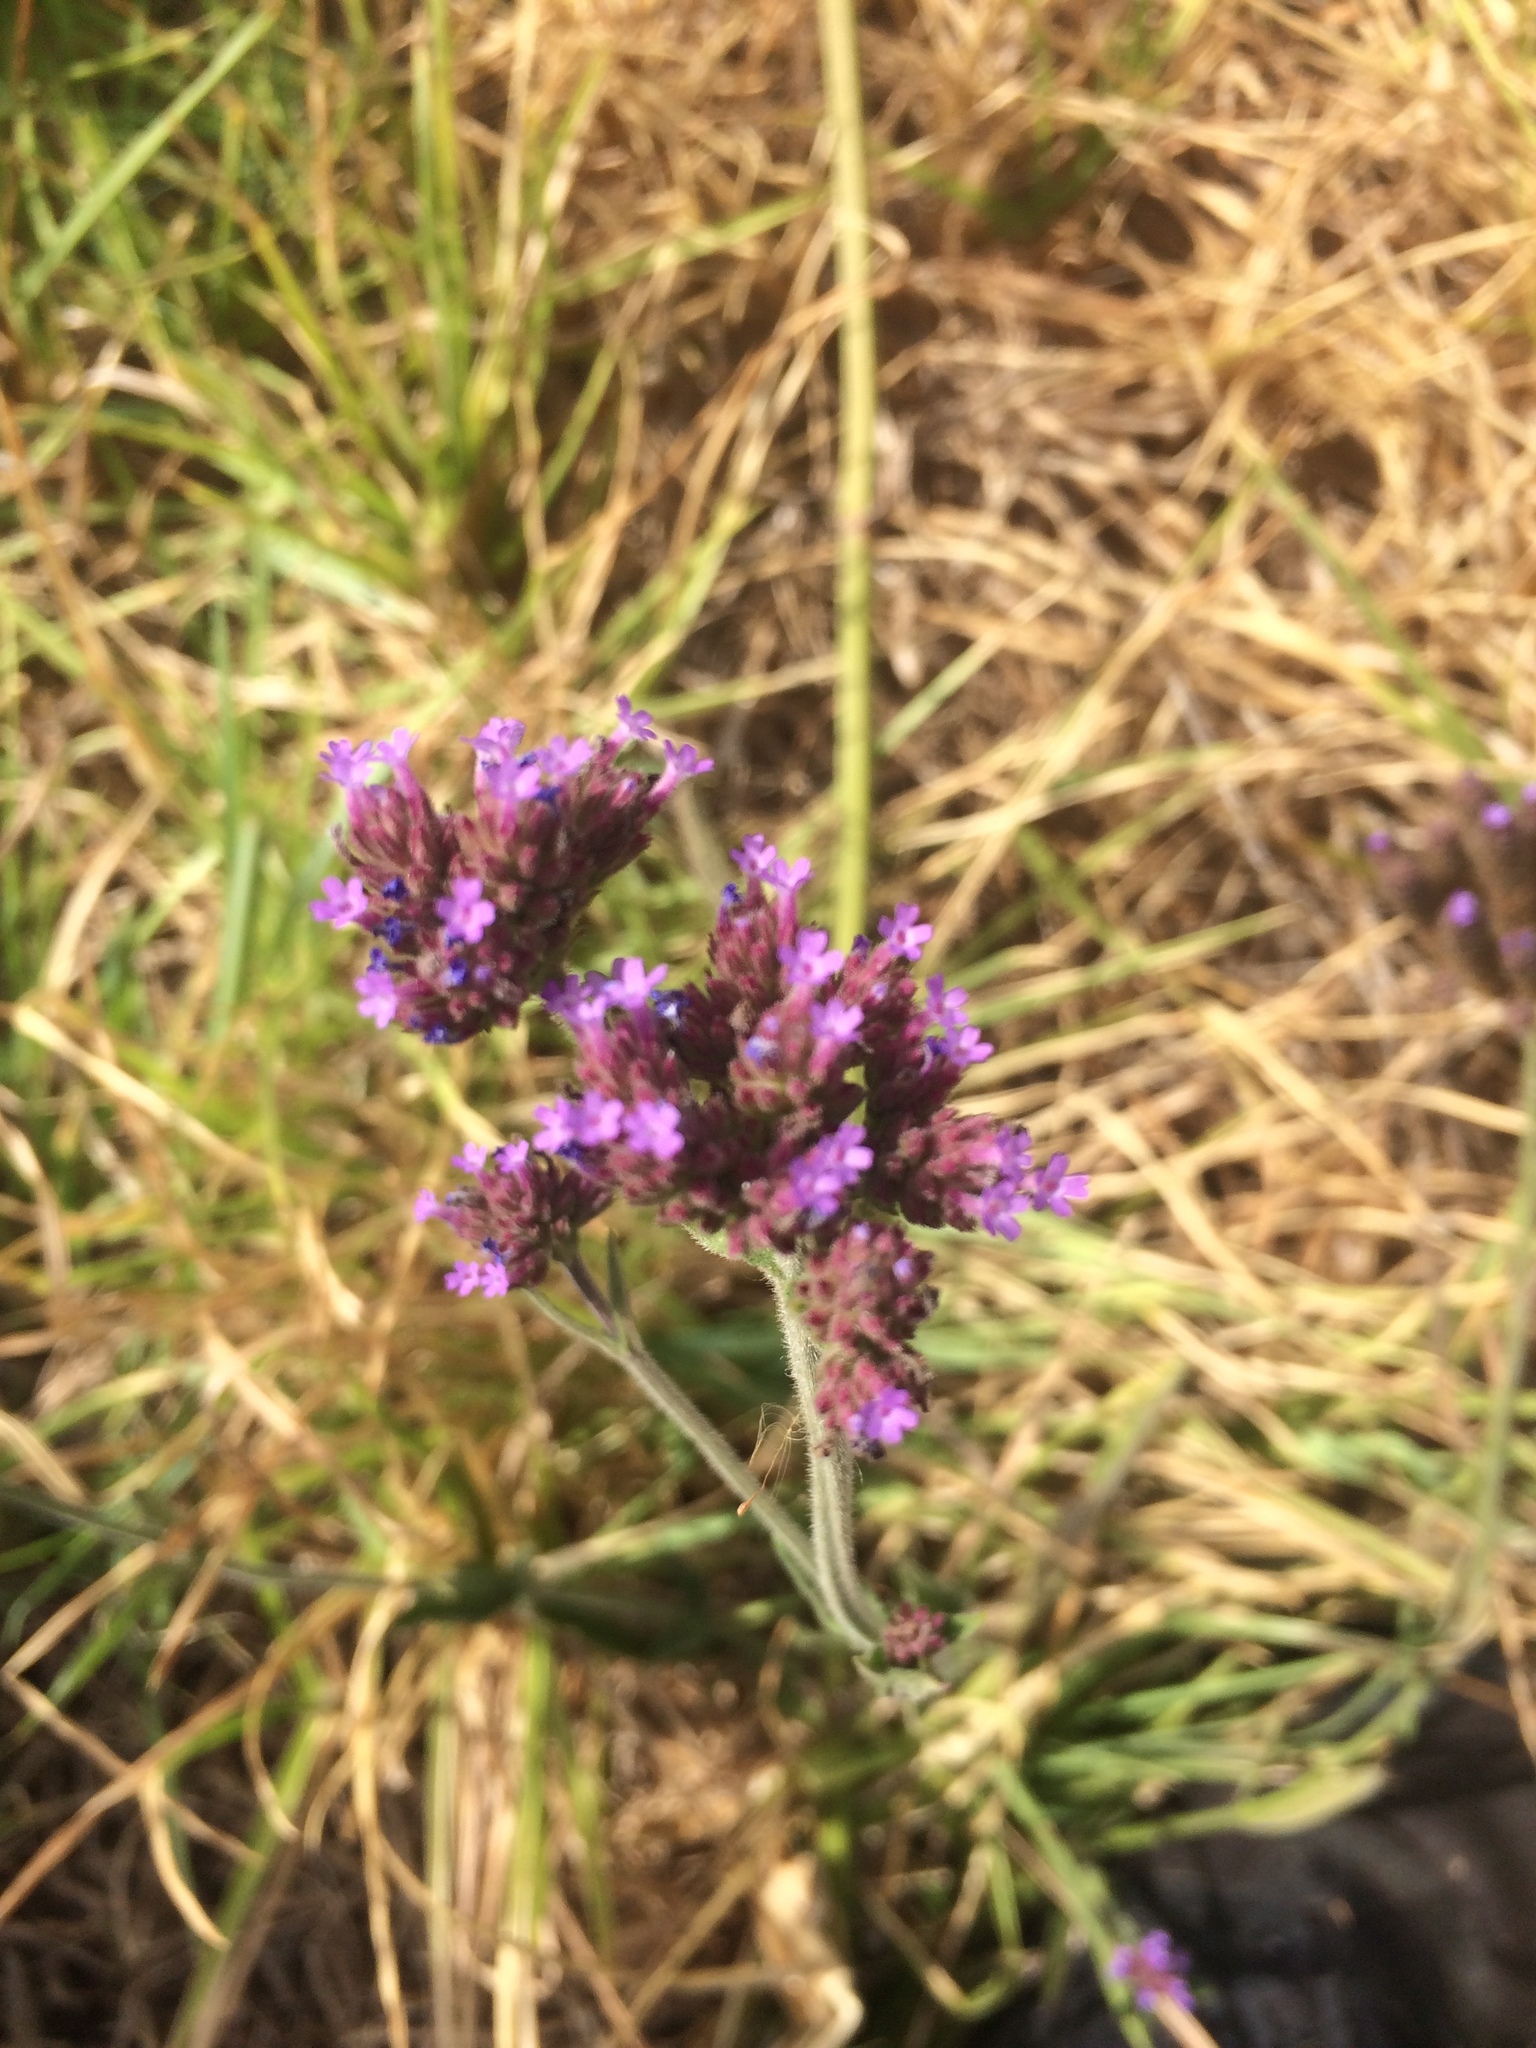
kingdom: Plantae
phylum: Tracheophyta
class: Magnoliopsida
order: Lamiales
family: Verbenaceae
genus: Verbena
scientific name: Verbena bonariensis
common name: Purpletop vervain
